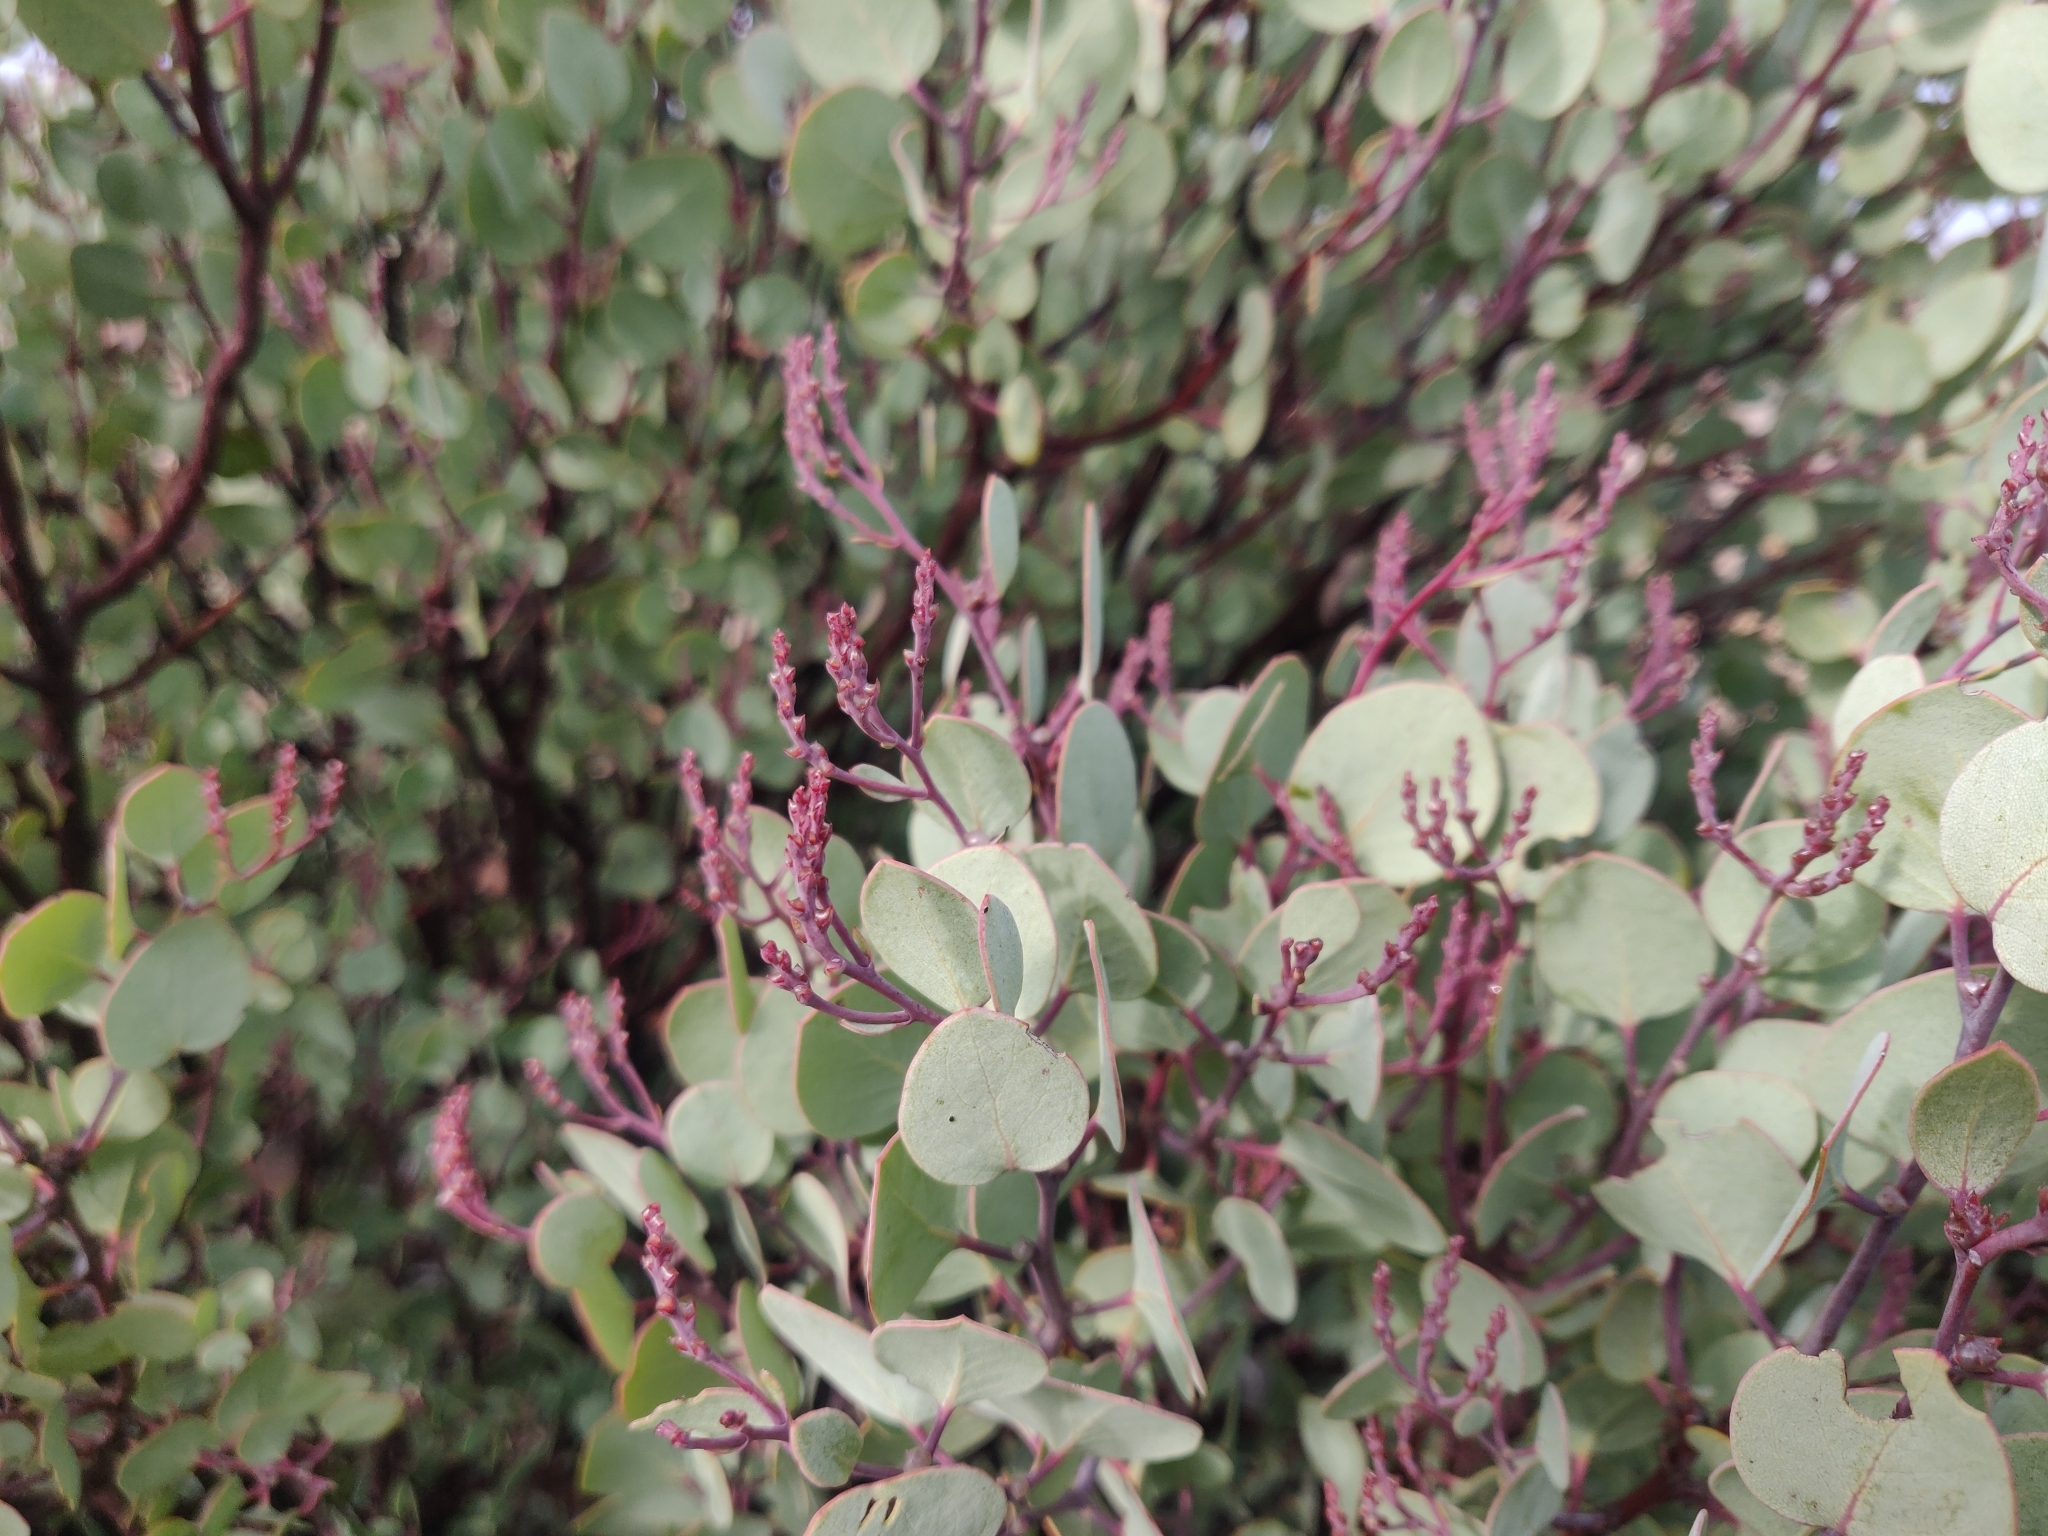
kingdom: Plantae
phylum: Tracheophyta
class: Magnoliopsida
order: Ericales
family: Ericaceae
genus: Arctostaphylos
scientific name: Arctostaphylos viscida
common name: White-leaf manzanita
